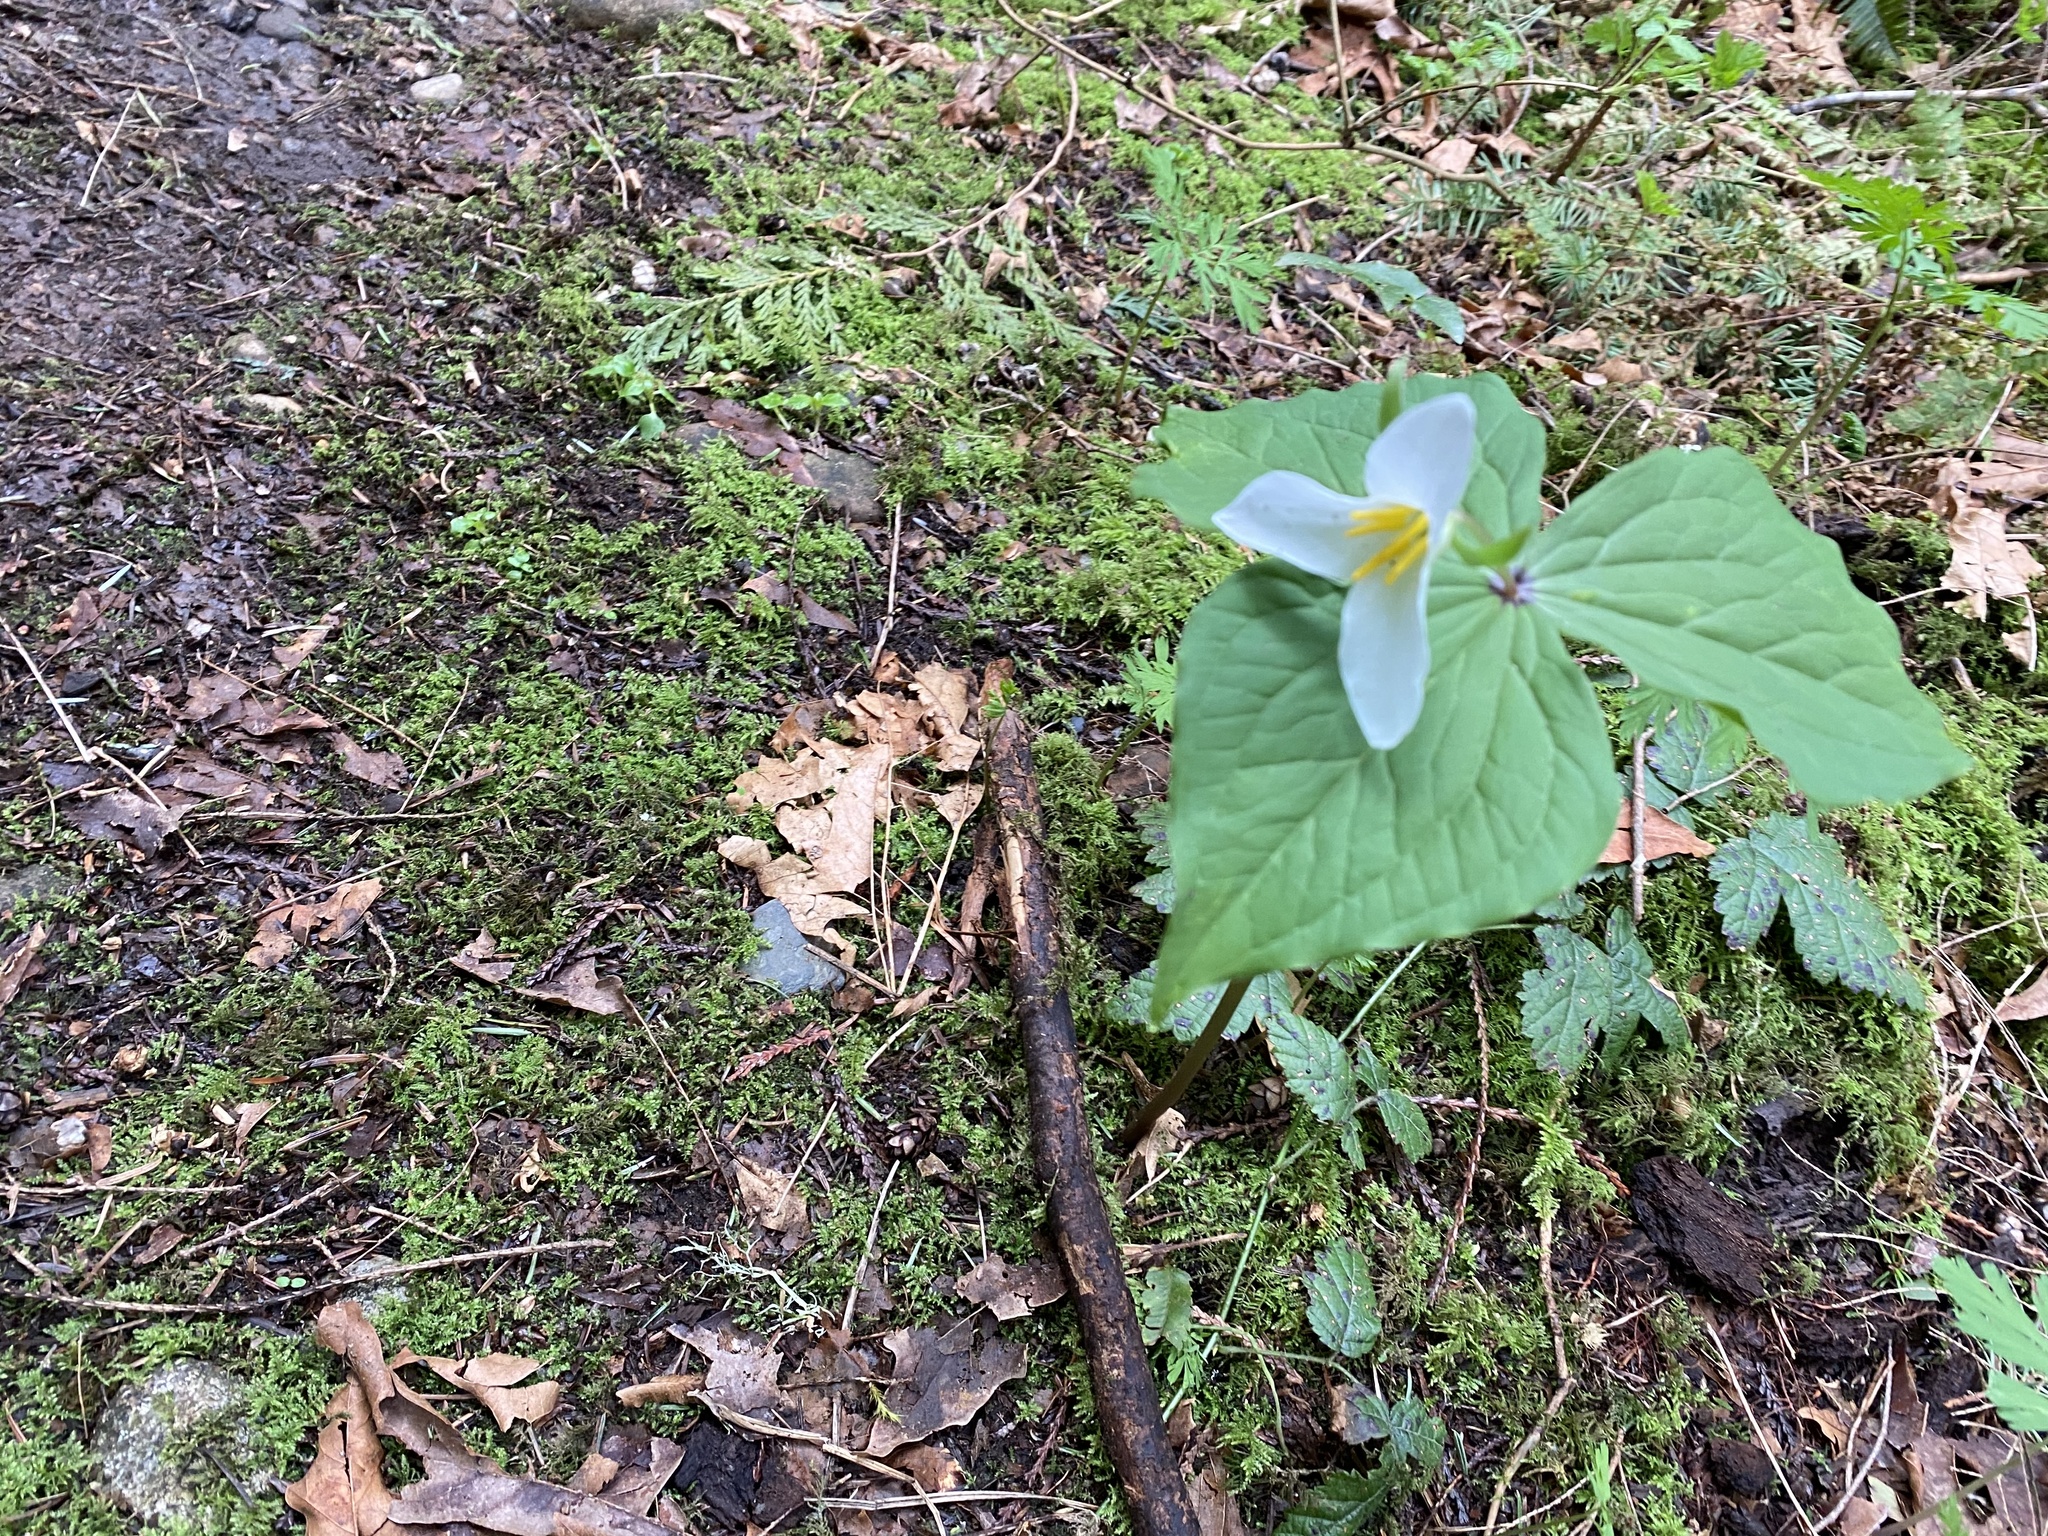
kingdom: Plantae
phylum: Tracheophyta
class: Liliopsida
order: Liliales
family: Melanthiaceae
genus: Trillium
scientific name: Trillium ovatum
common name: Pacific trillium
